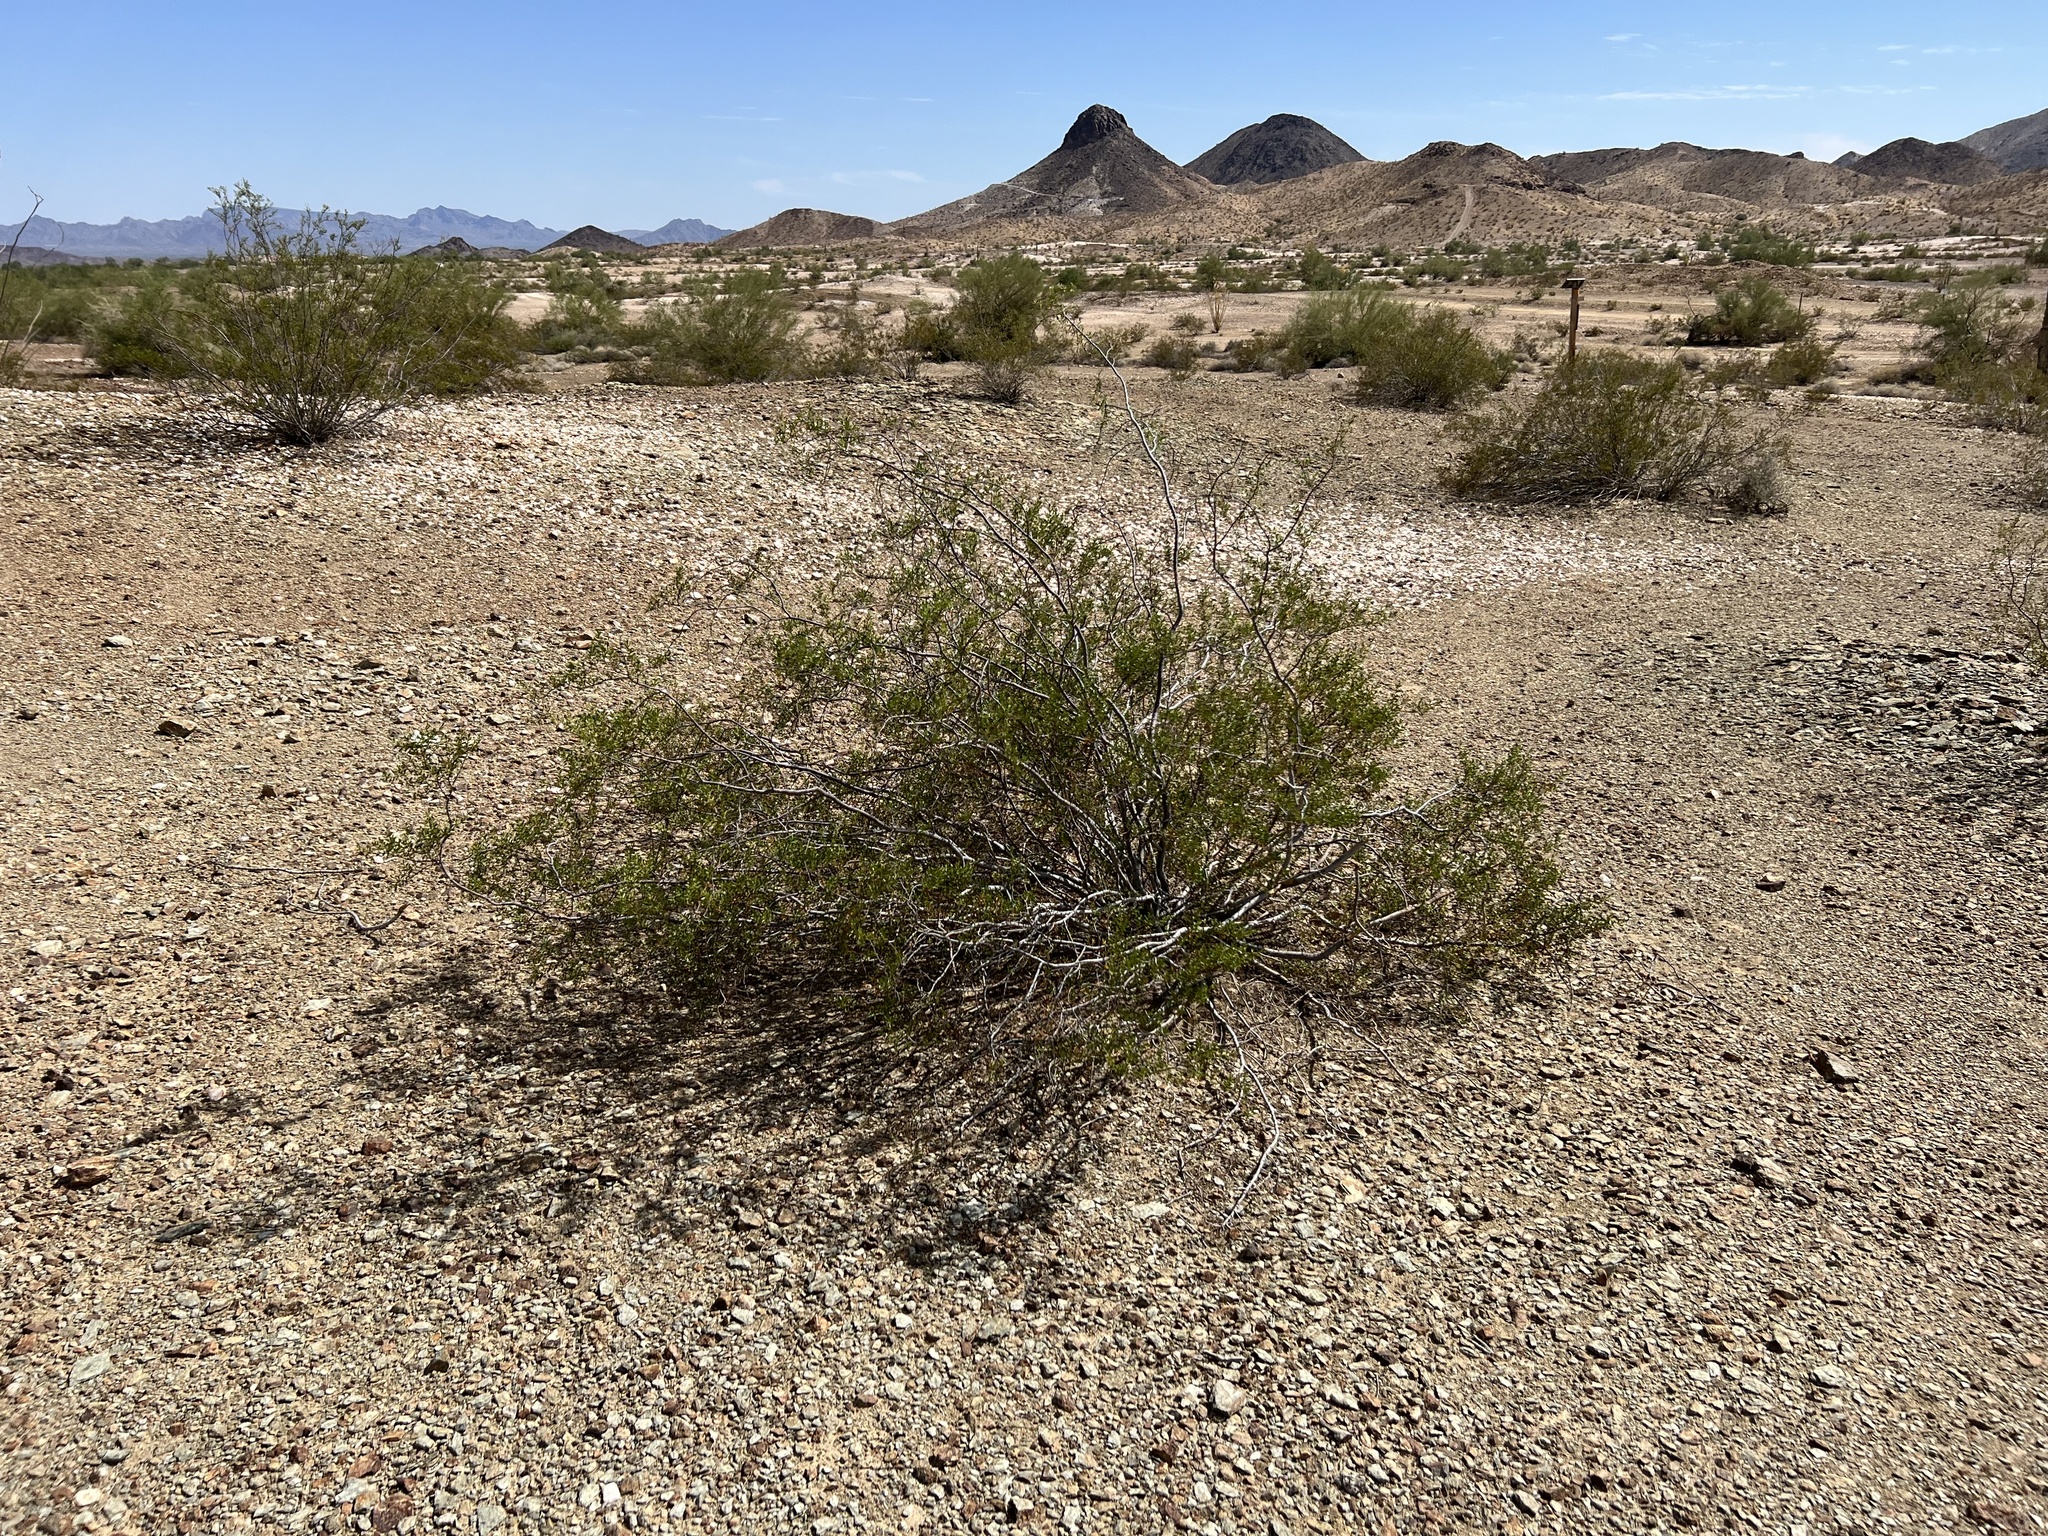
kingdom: Plantae
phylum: Tracheophyta
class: Magnoliopsida
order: Zygophyllales
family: Zygophyllaceae
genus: Larrea
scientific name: Larrea tridentata
